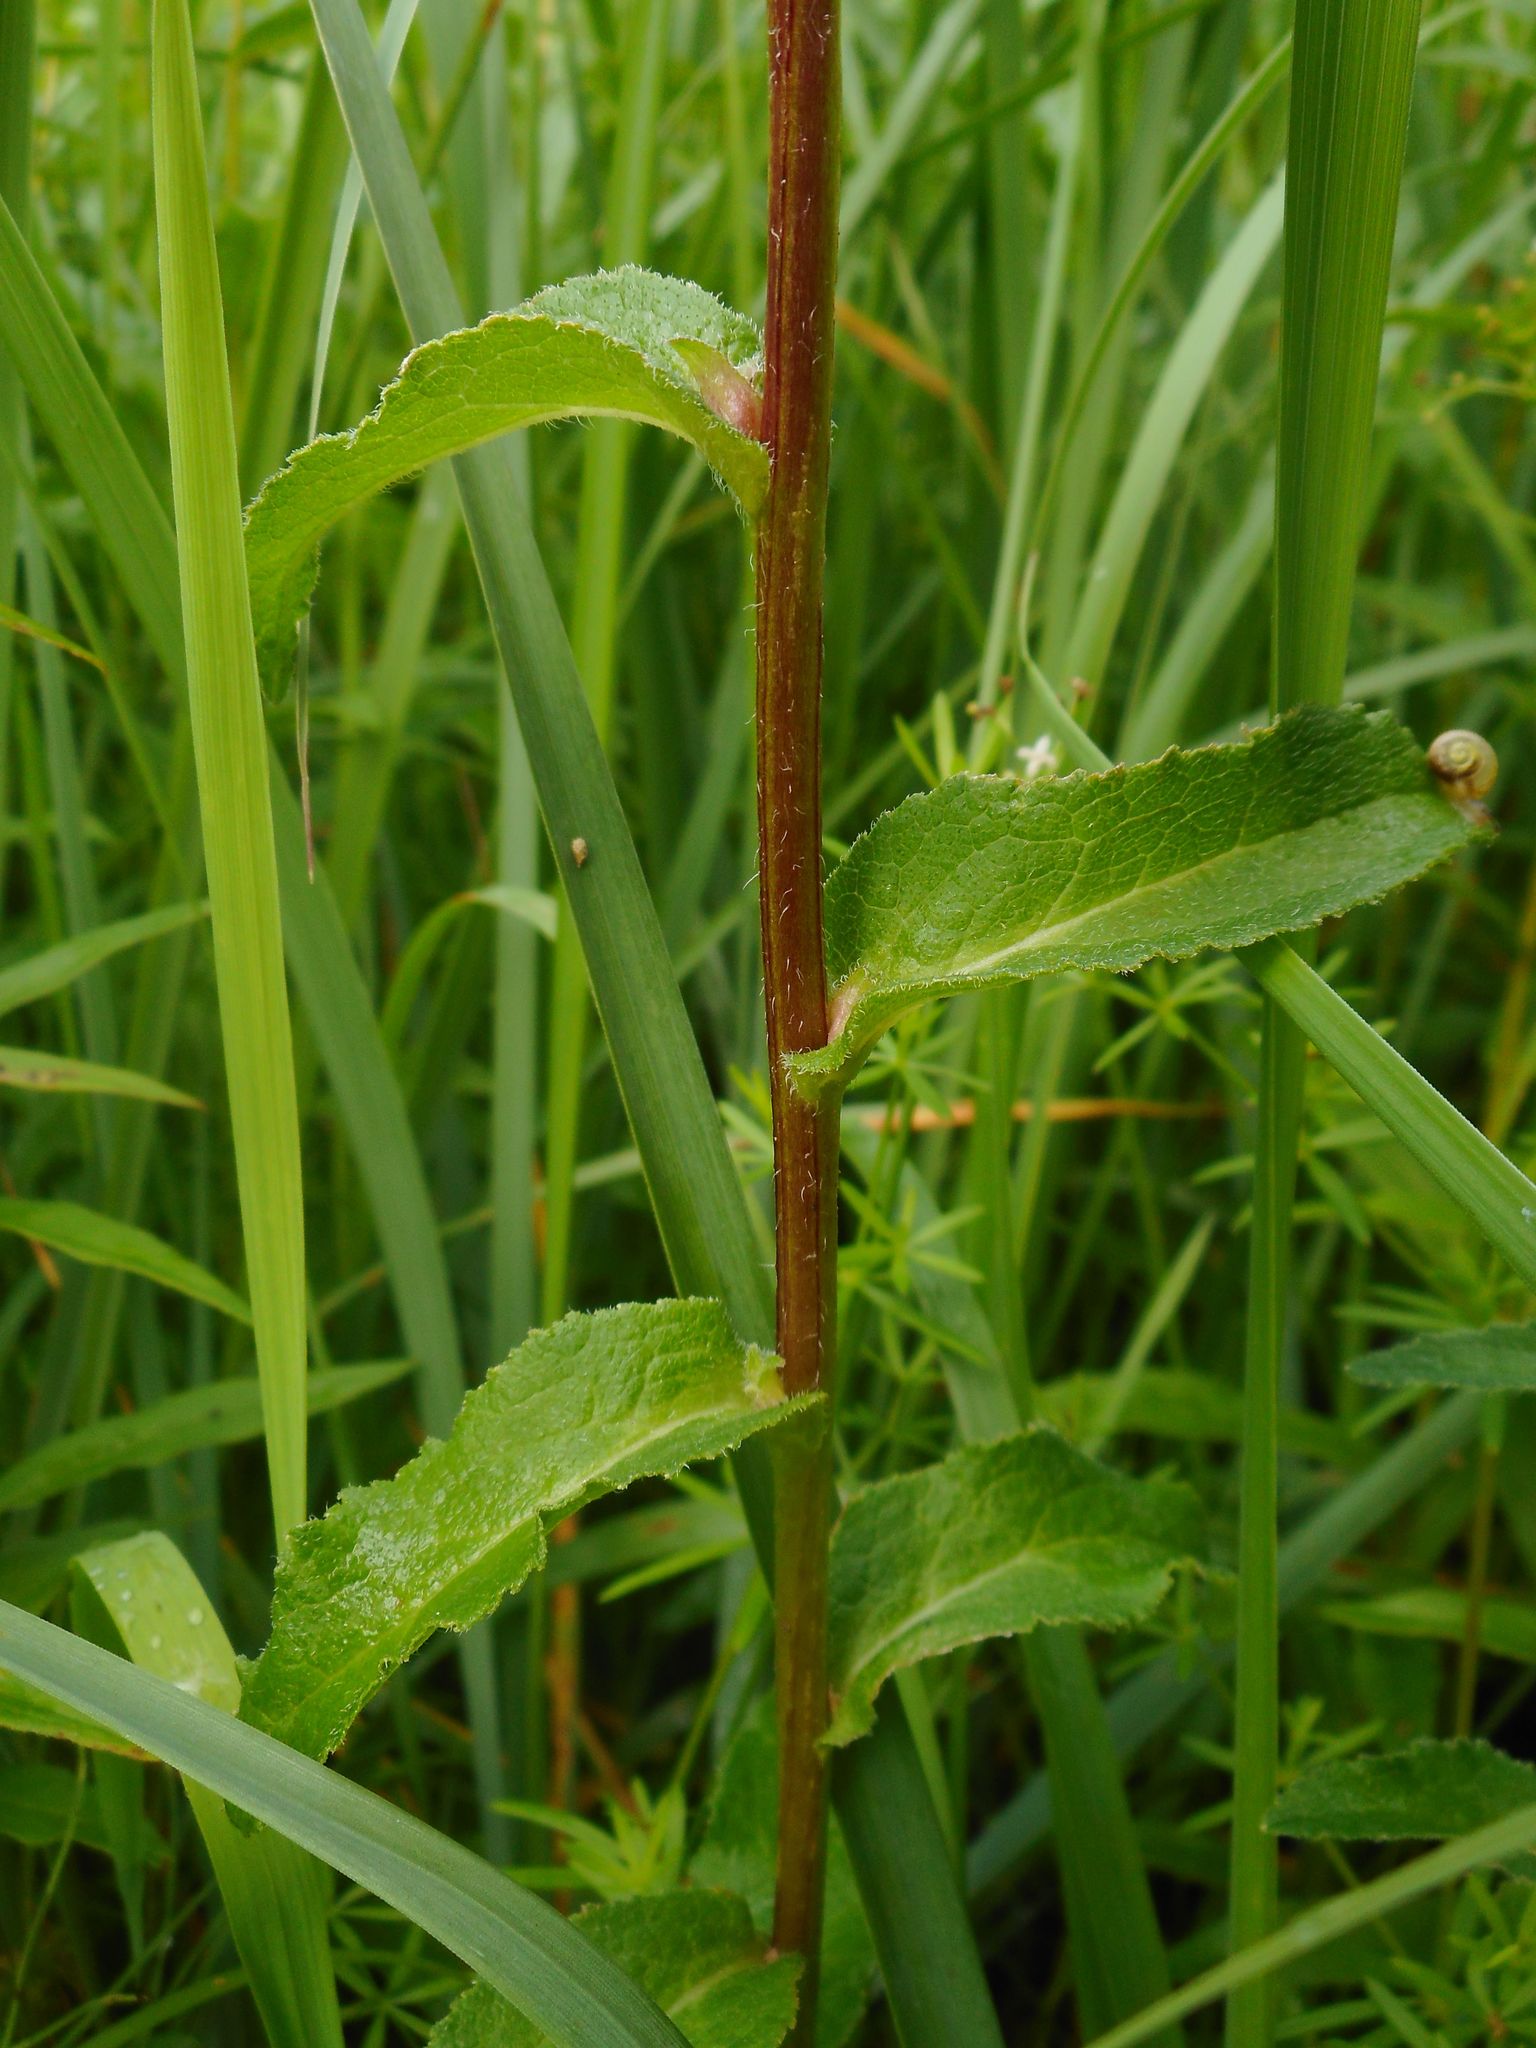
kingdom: Plantae
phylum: Tracheophyta
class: Magnoliopsida
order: Asterales
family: Campanulaceae
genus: Campanula
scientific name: Campanula glomerata
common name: Clustered bellflower
